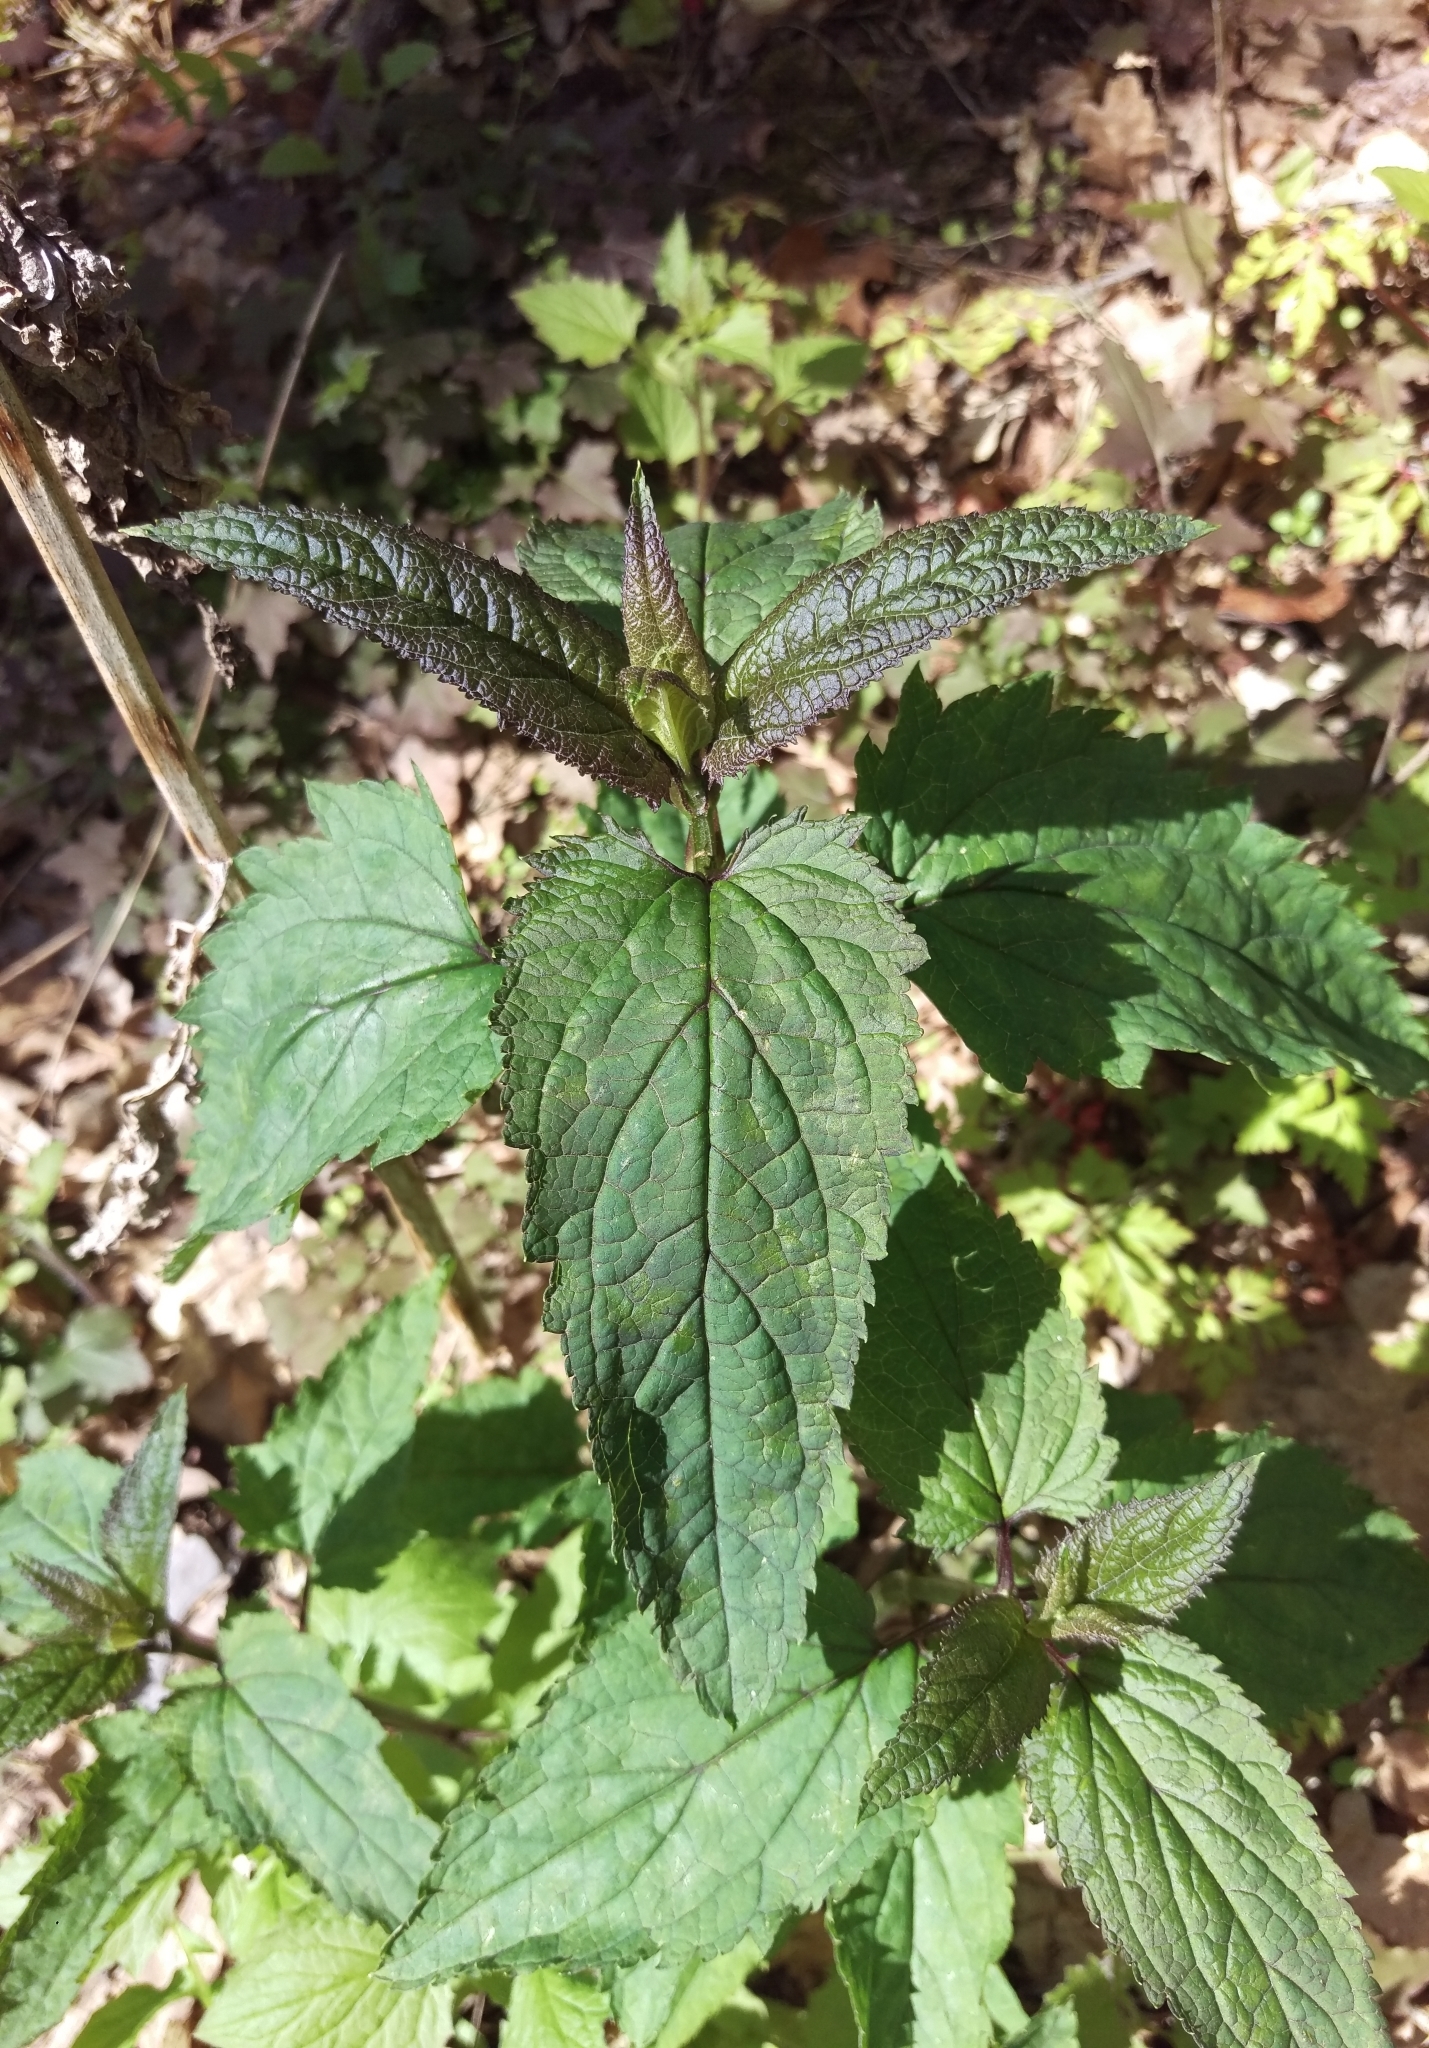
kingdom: Plantae
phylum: Tracheophyta
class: Magnoliopsida
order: Lamiales
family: Scrophulariaceae
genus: Scrophularia
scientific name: Scrophularia nodosa
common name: Common figwort
